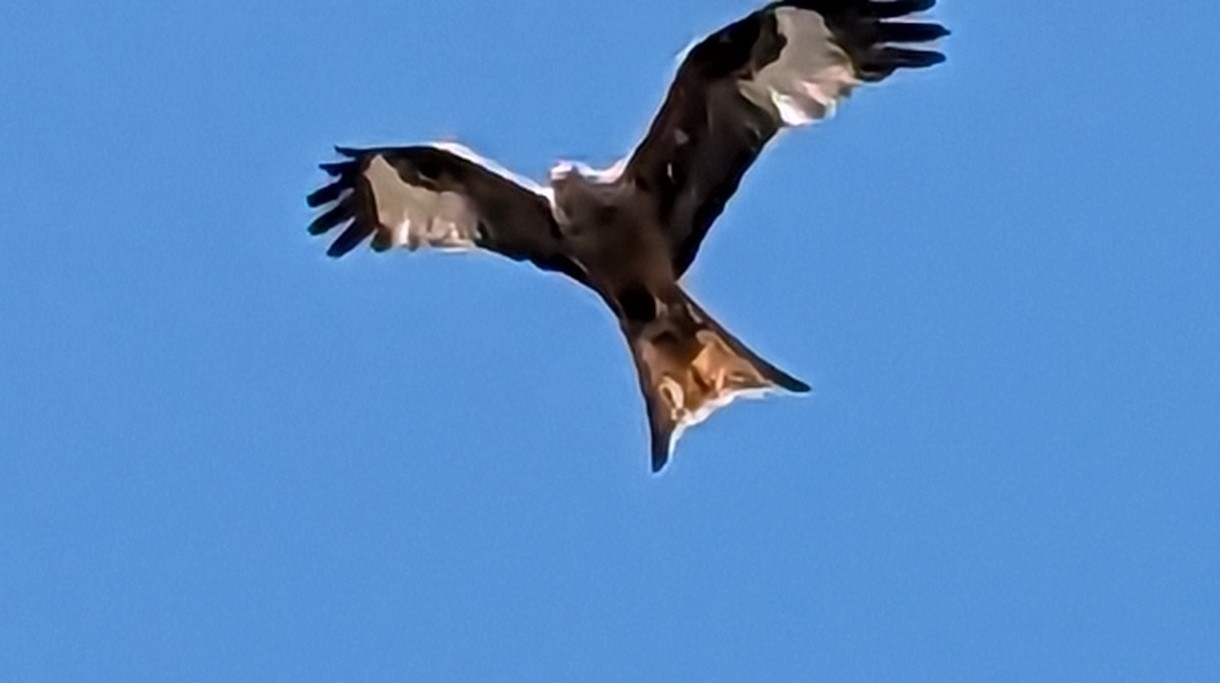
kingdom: Animalia
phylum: Chordata
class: Aves
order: Accipitriformes
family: Accipitridae
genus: Milvus
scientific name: Milvus milvus
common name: Red kite
